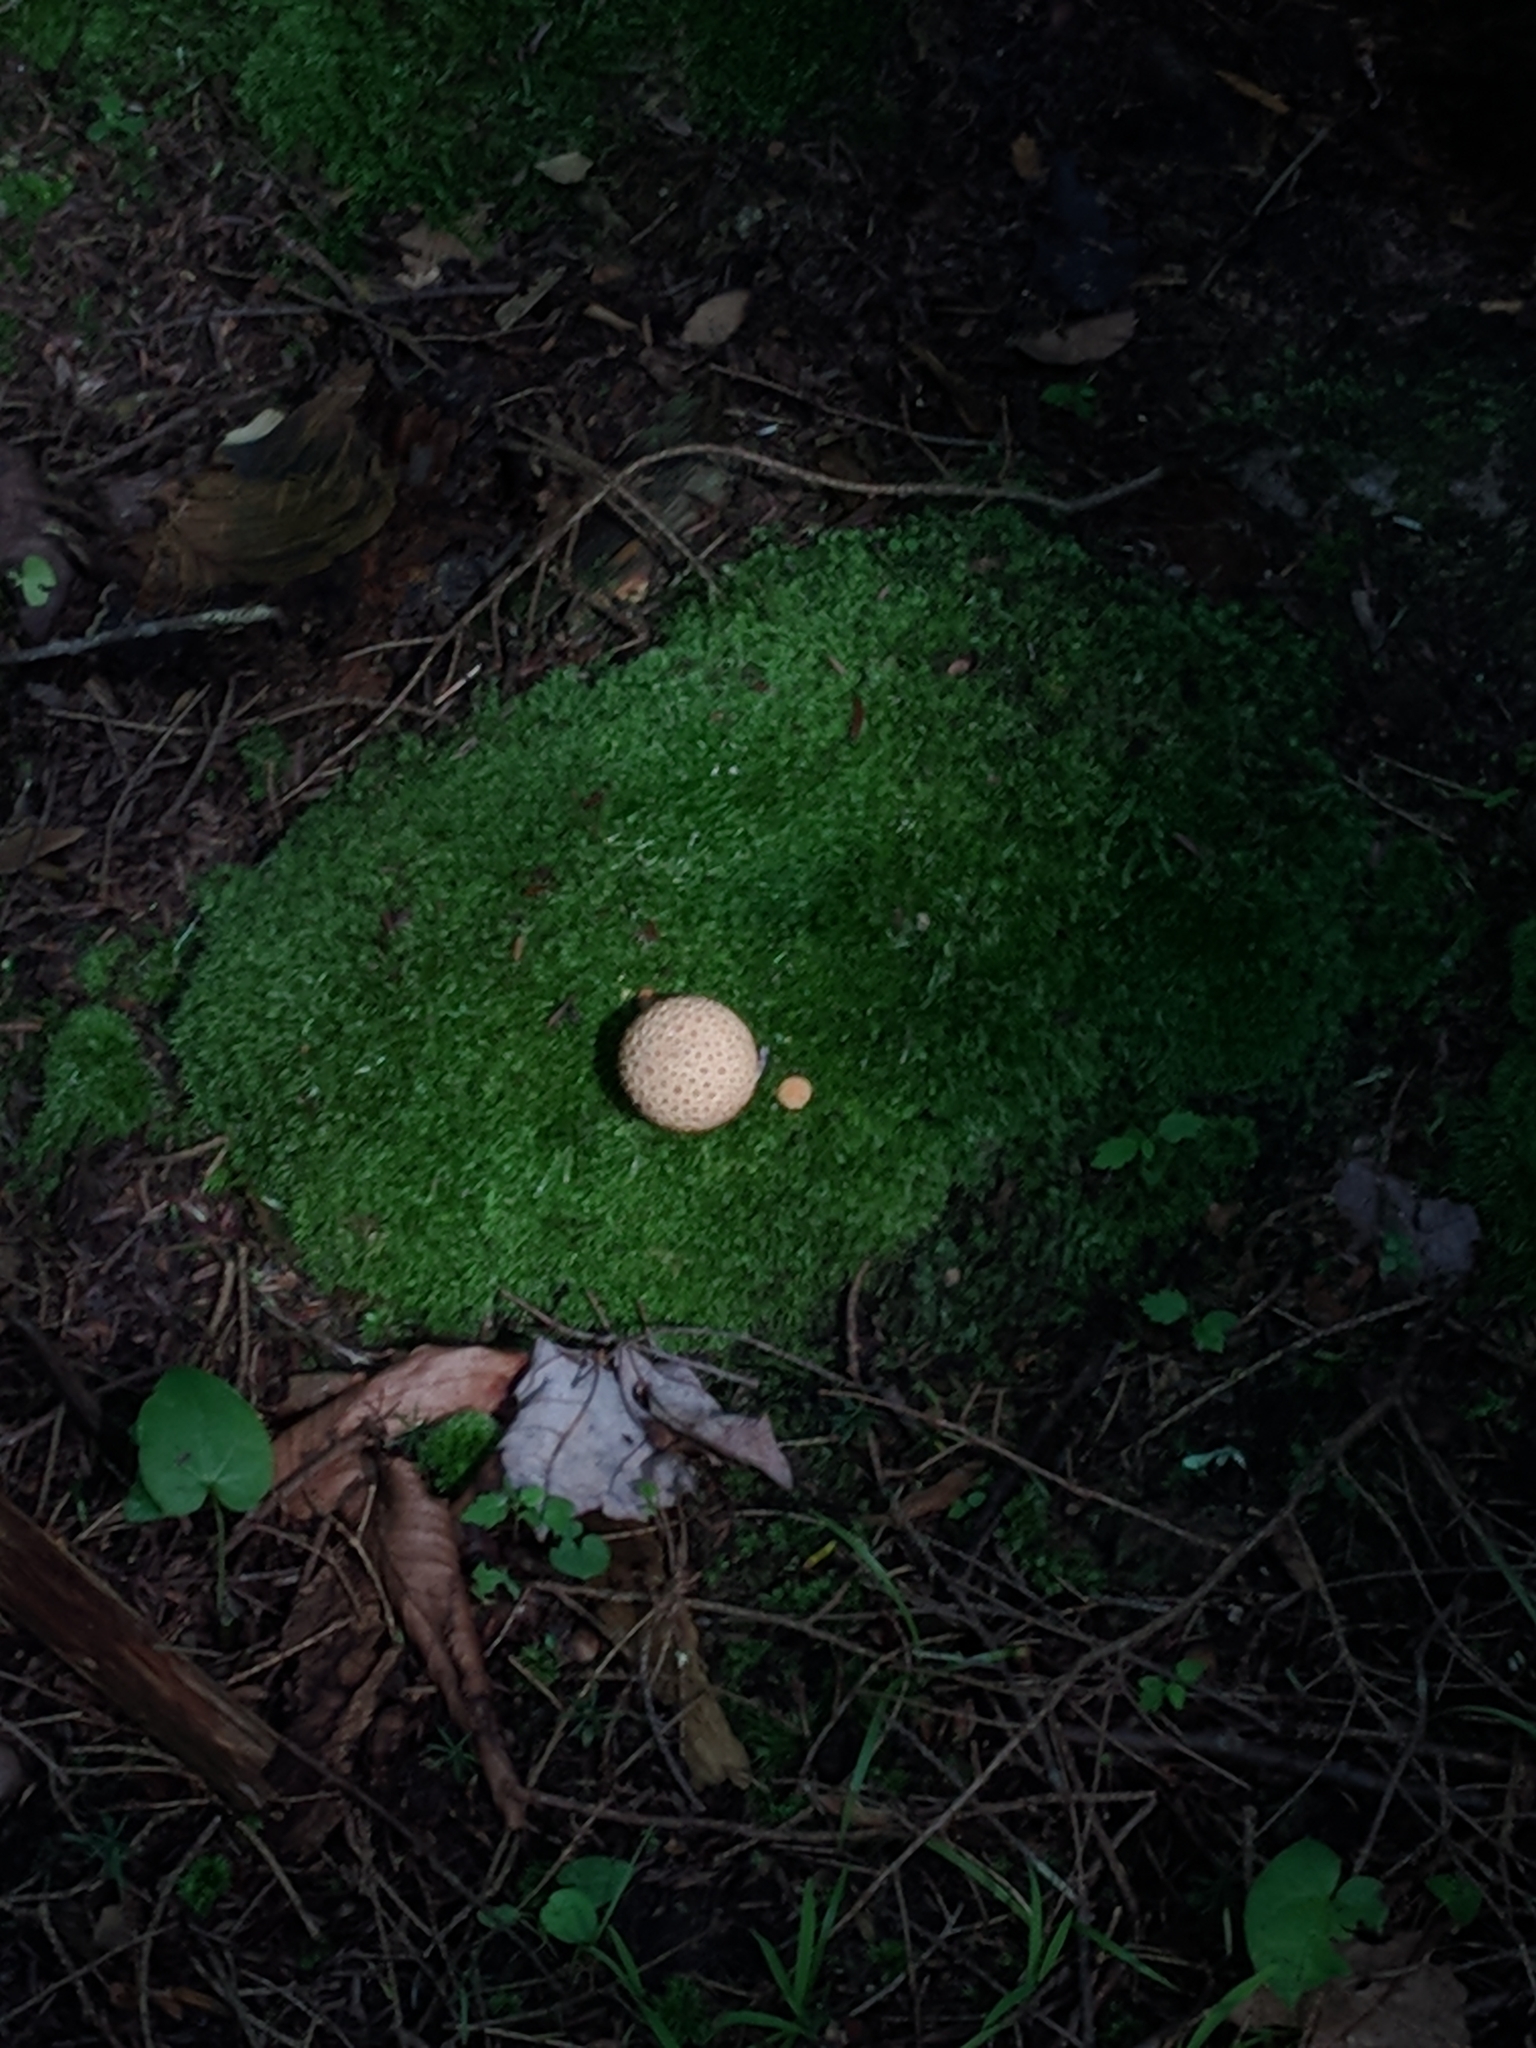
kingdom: Fungi
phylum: Basidiomycota
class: Agaricomycetes
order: Boletales
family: Sclerodermataceae
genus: Scleroderma
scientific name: Scleroderma citrinum
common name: Common earthball
